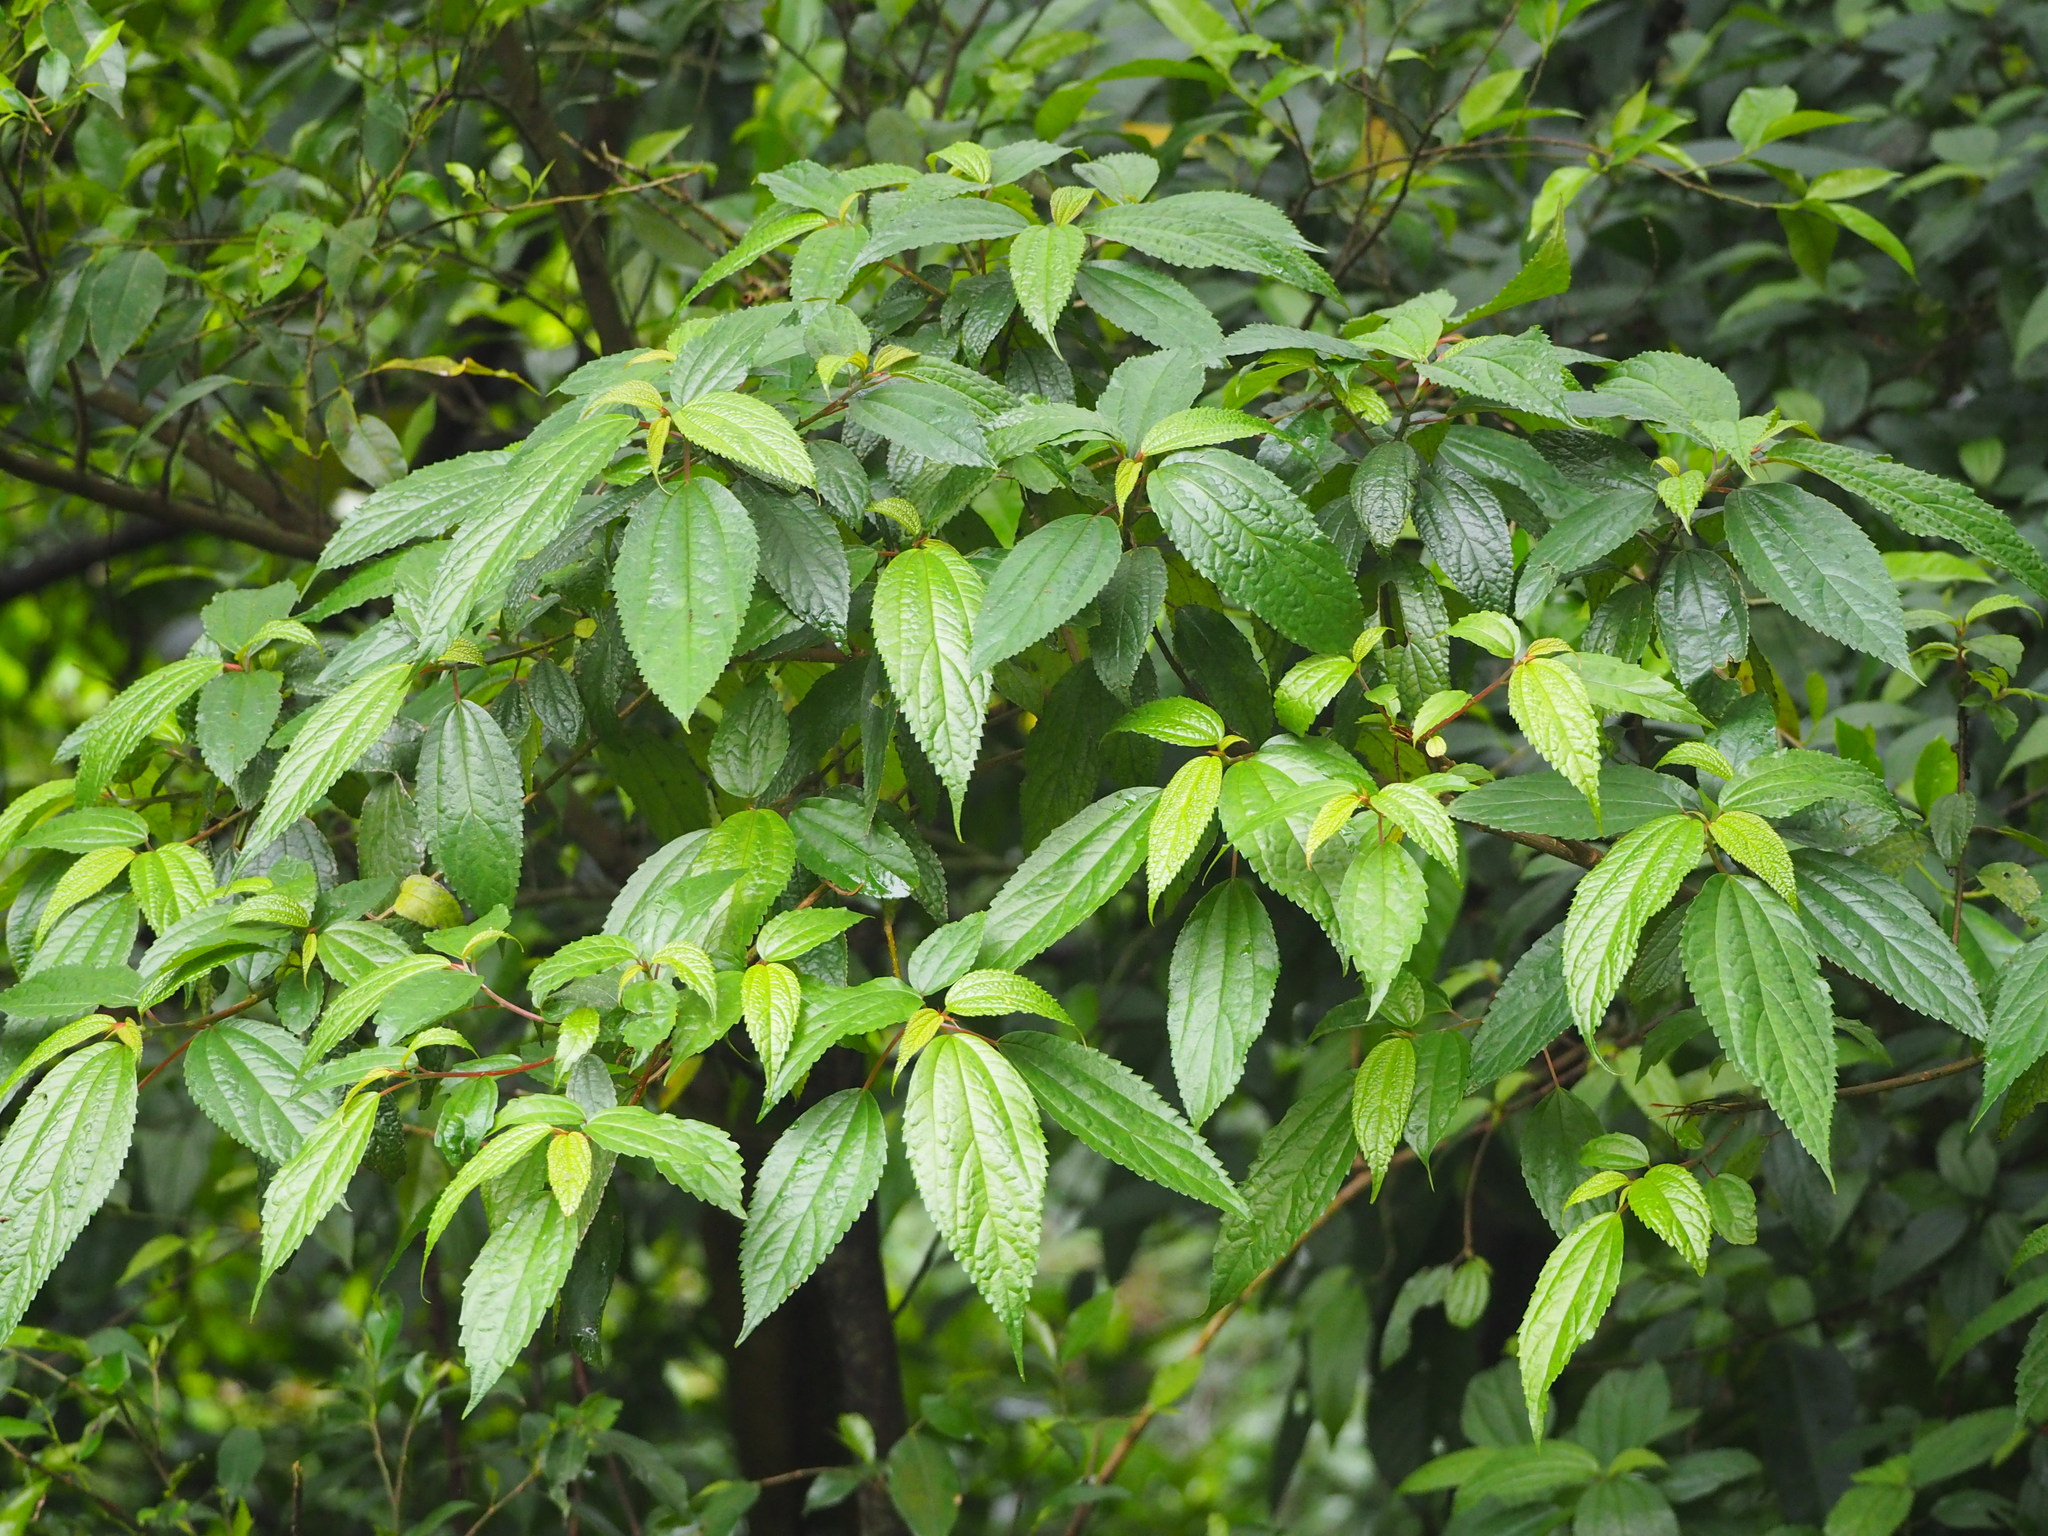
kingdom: Plantae
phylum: Tracheophyta
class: Magnoliopsida
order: Rosales
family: Urticaceae
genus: Oreocnide
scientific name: Oreocnide pedunculata
